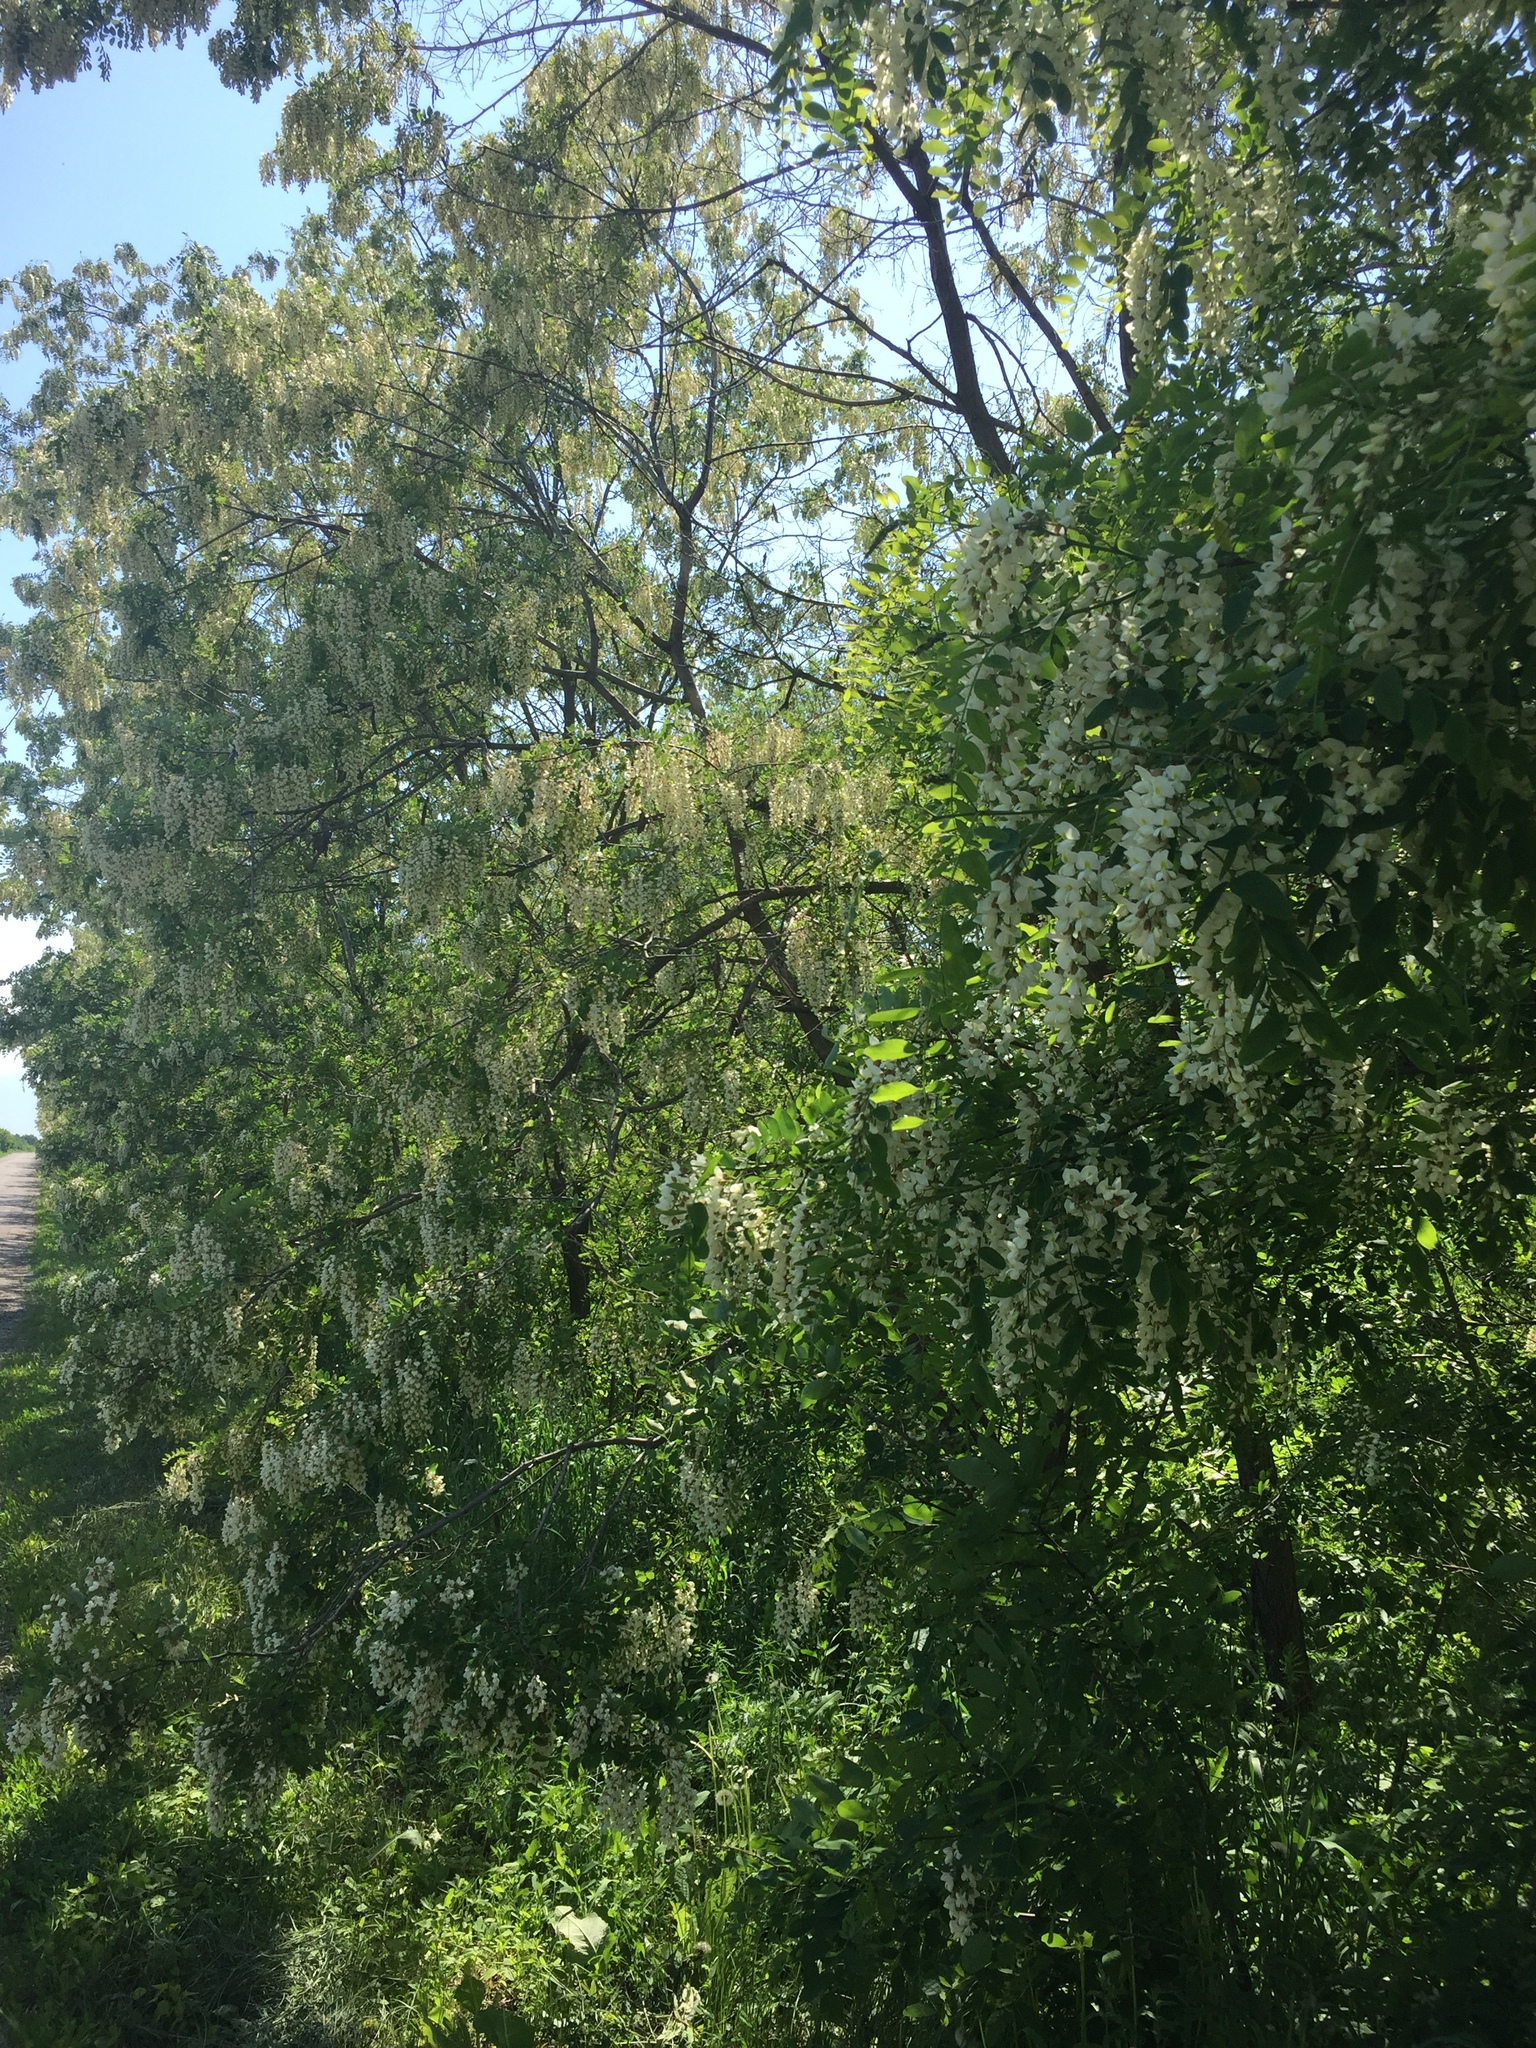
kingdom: Plantae
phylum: Tracheophyta
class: Magnoliopsida
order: Fabales
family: Fabaceae
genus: Robinia
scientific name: Robinia pseudoacacia
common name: Black locust
